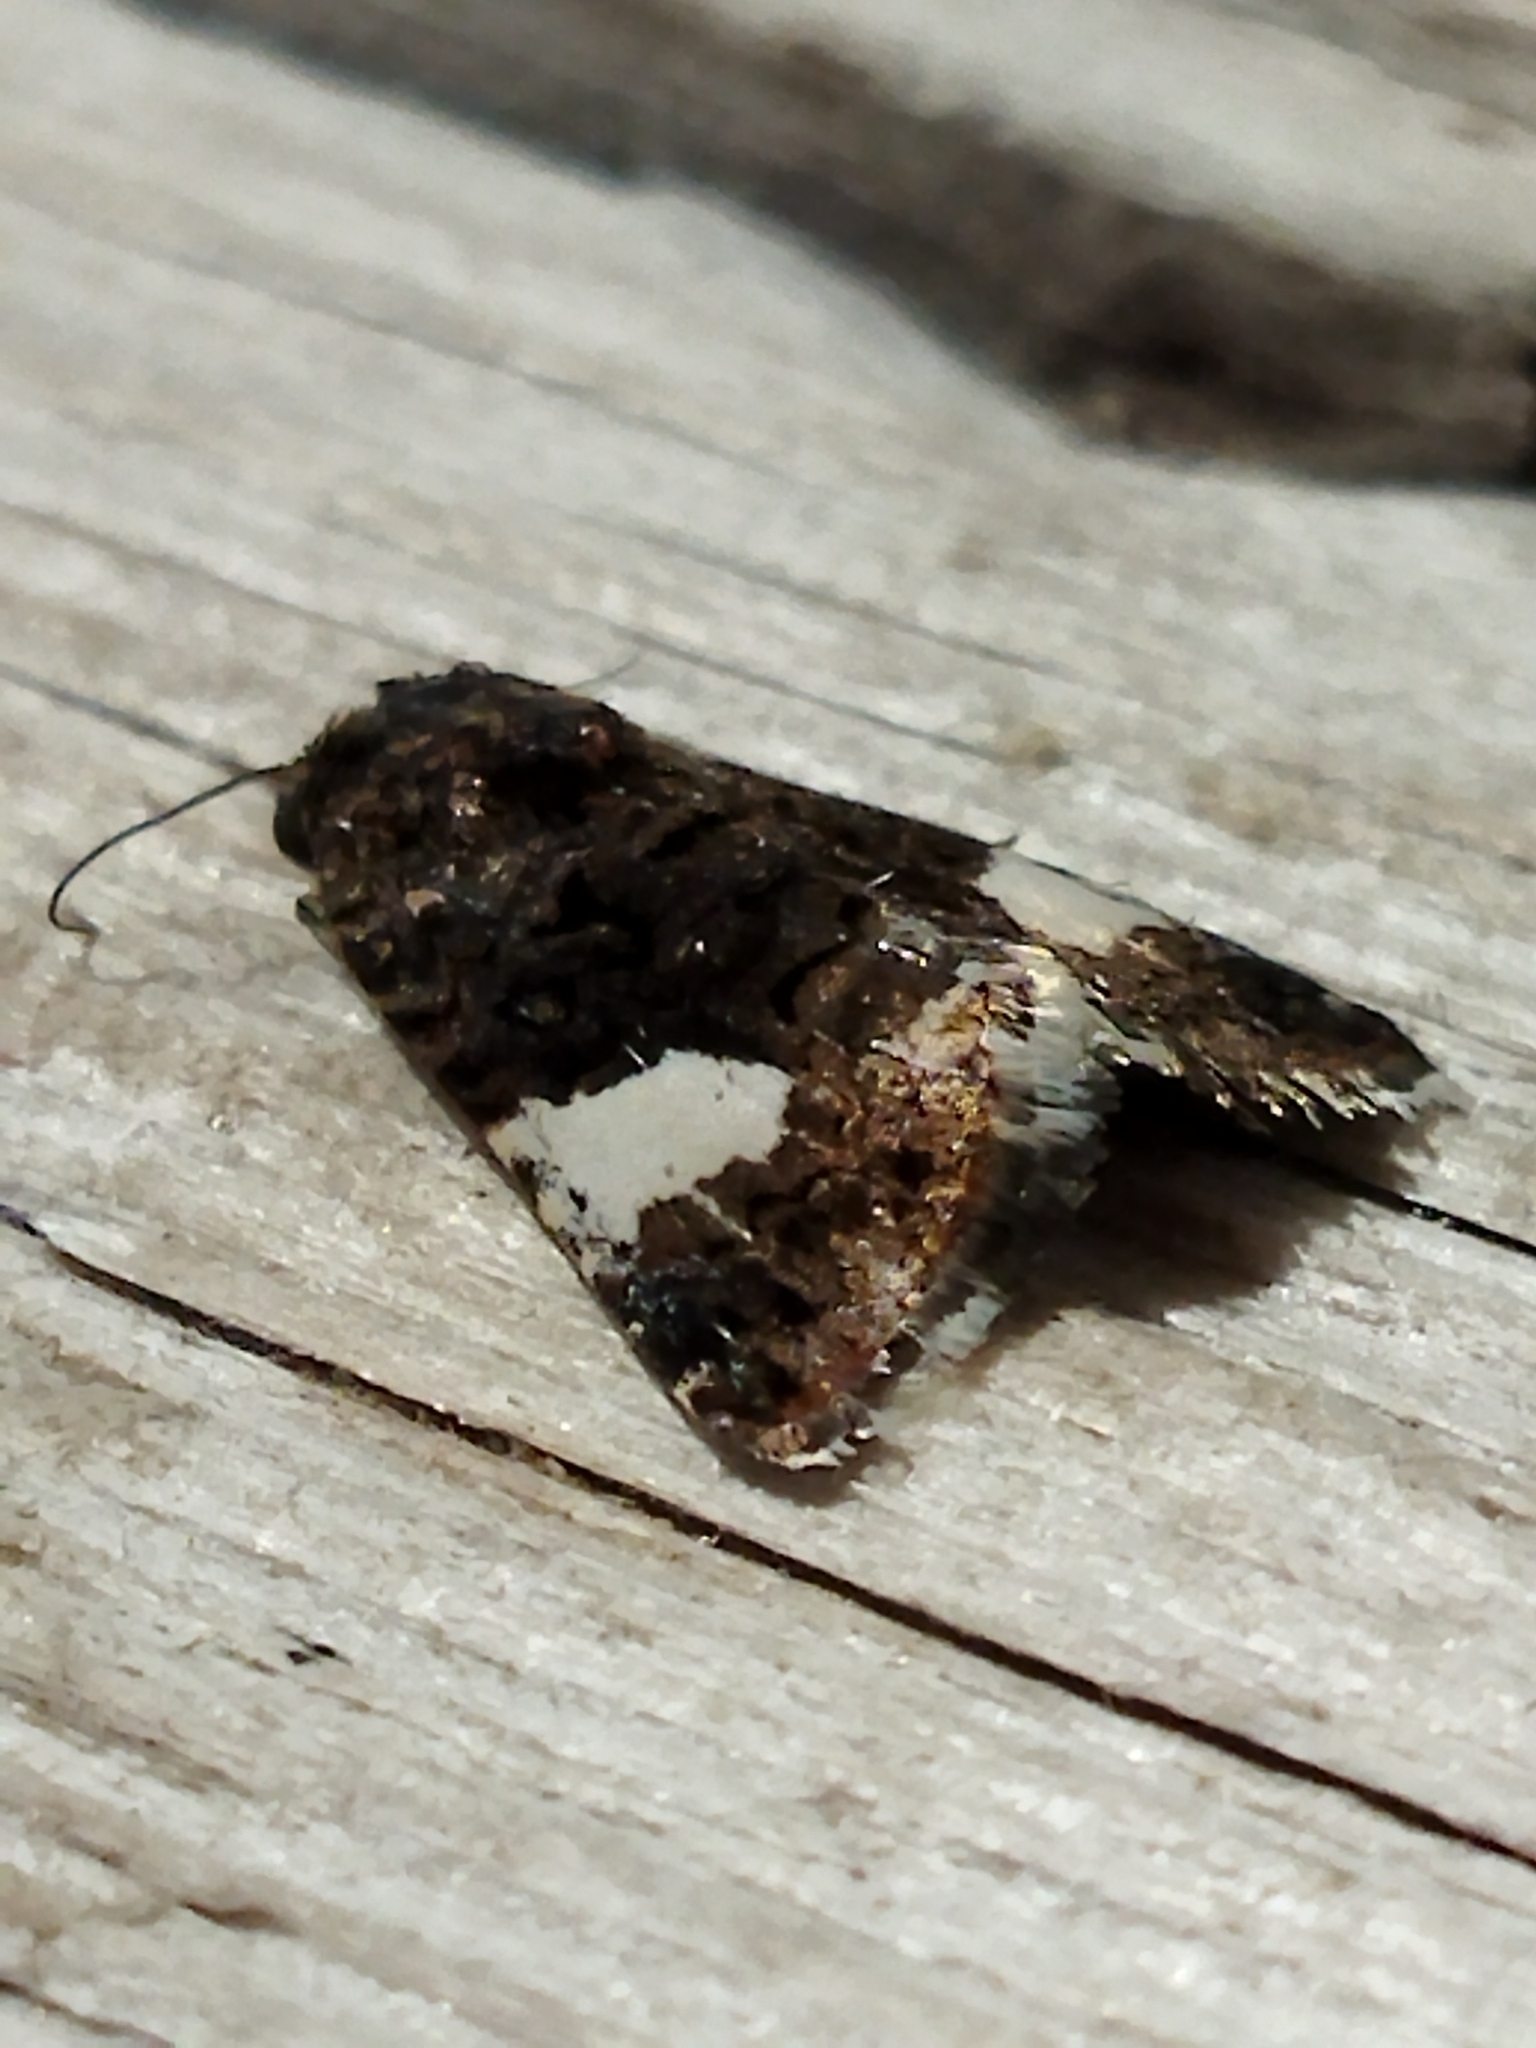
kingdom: Animalia
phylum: Arthropoda
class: Insecta
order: Lepidoptera
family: Erebidae
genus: Tyta
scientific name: Tyta luctuosa
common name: Four-spotted
